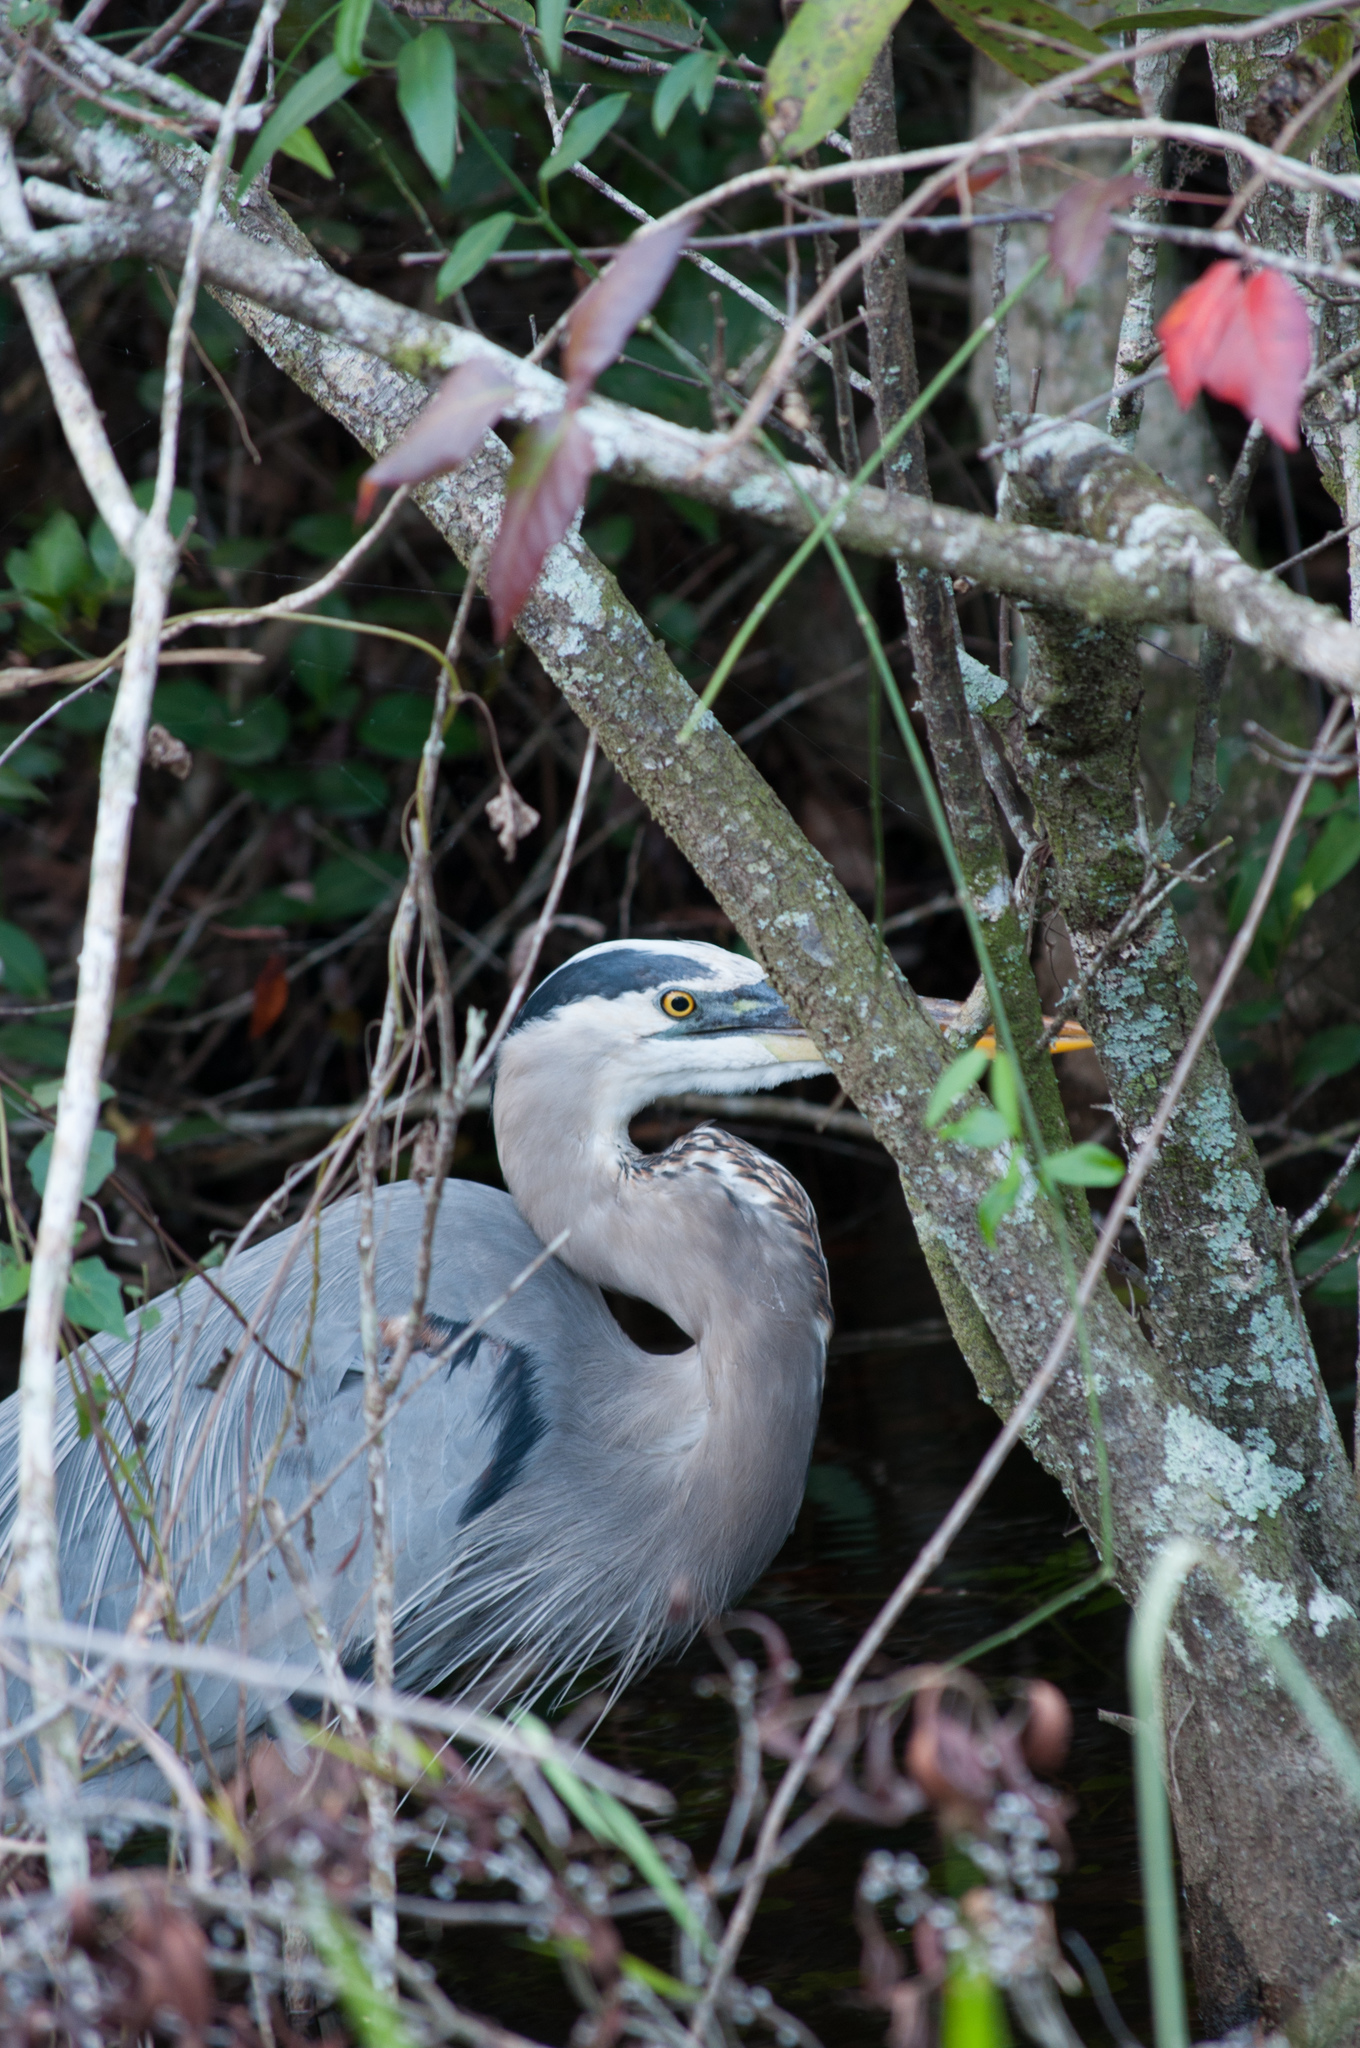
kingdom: Animalia
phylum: Chordata
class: Aves
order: Pelecaniformes
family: Ardeidae
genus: Ardea
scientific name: Ardea herodias
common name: Great blue heron
